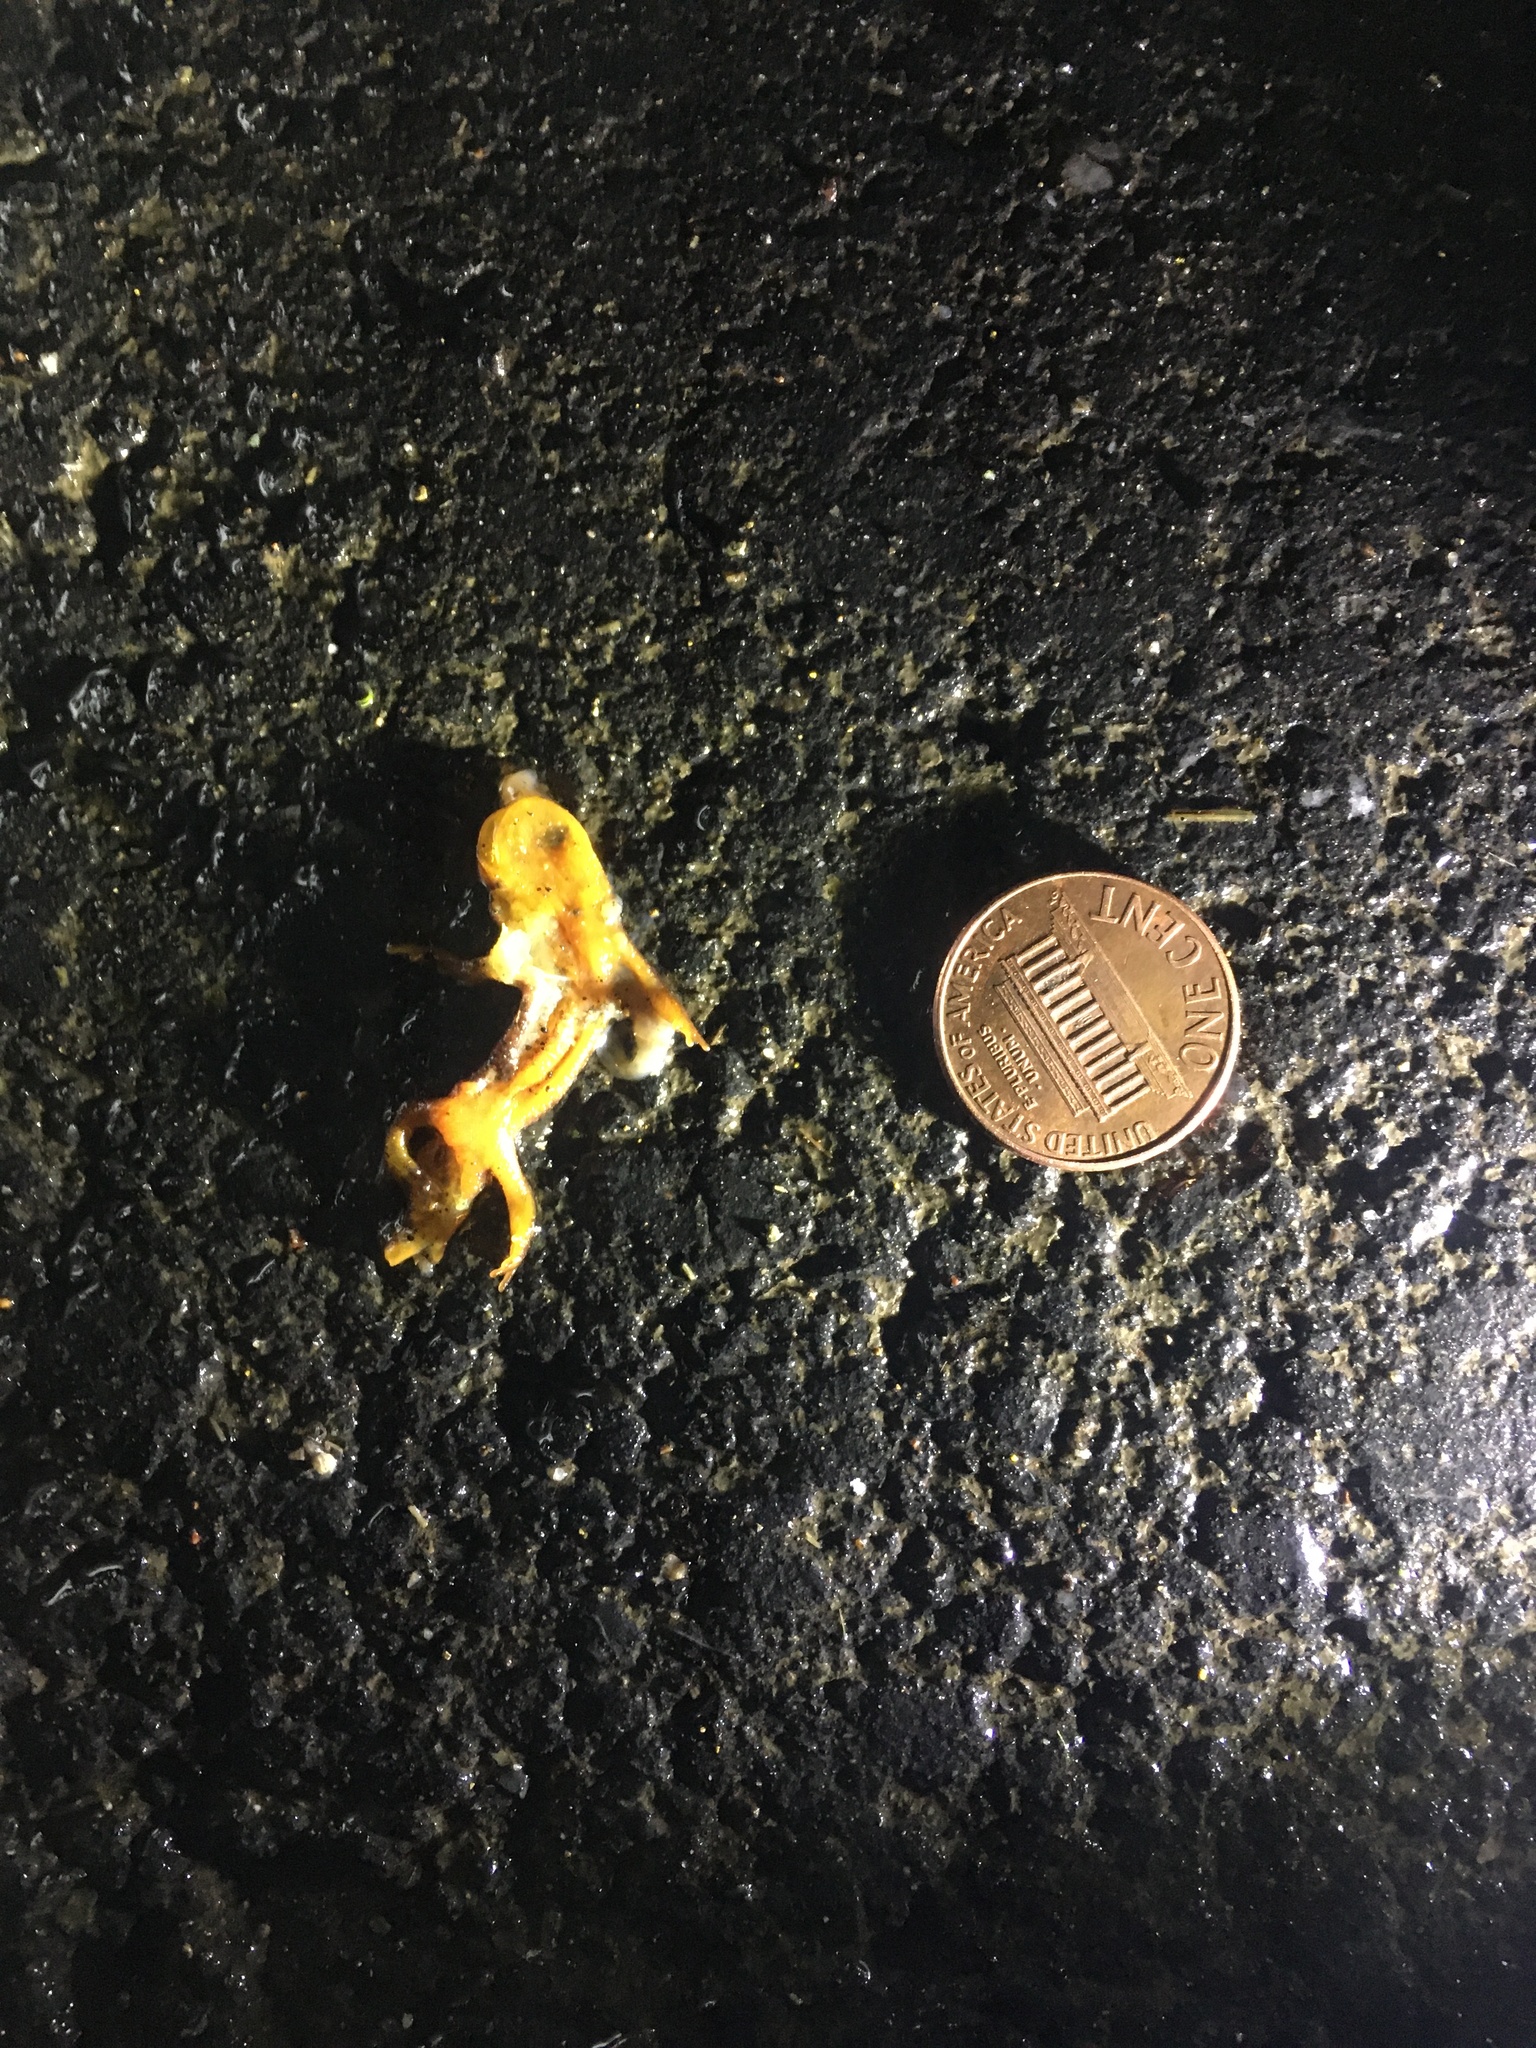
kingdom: Animalia
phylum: Chordata
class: Amphibia
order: Caudata
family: Salamandridae
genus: Taricha
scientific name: Taricha
